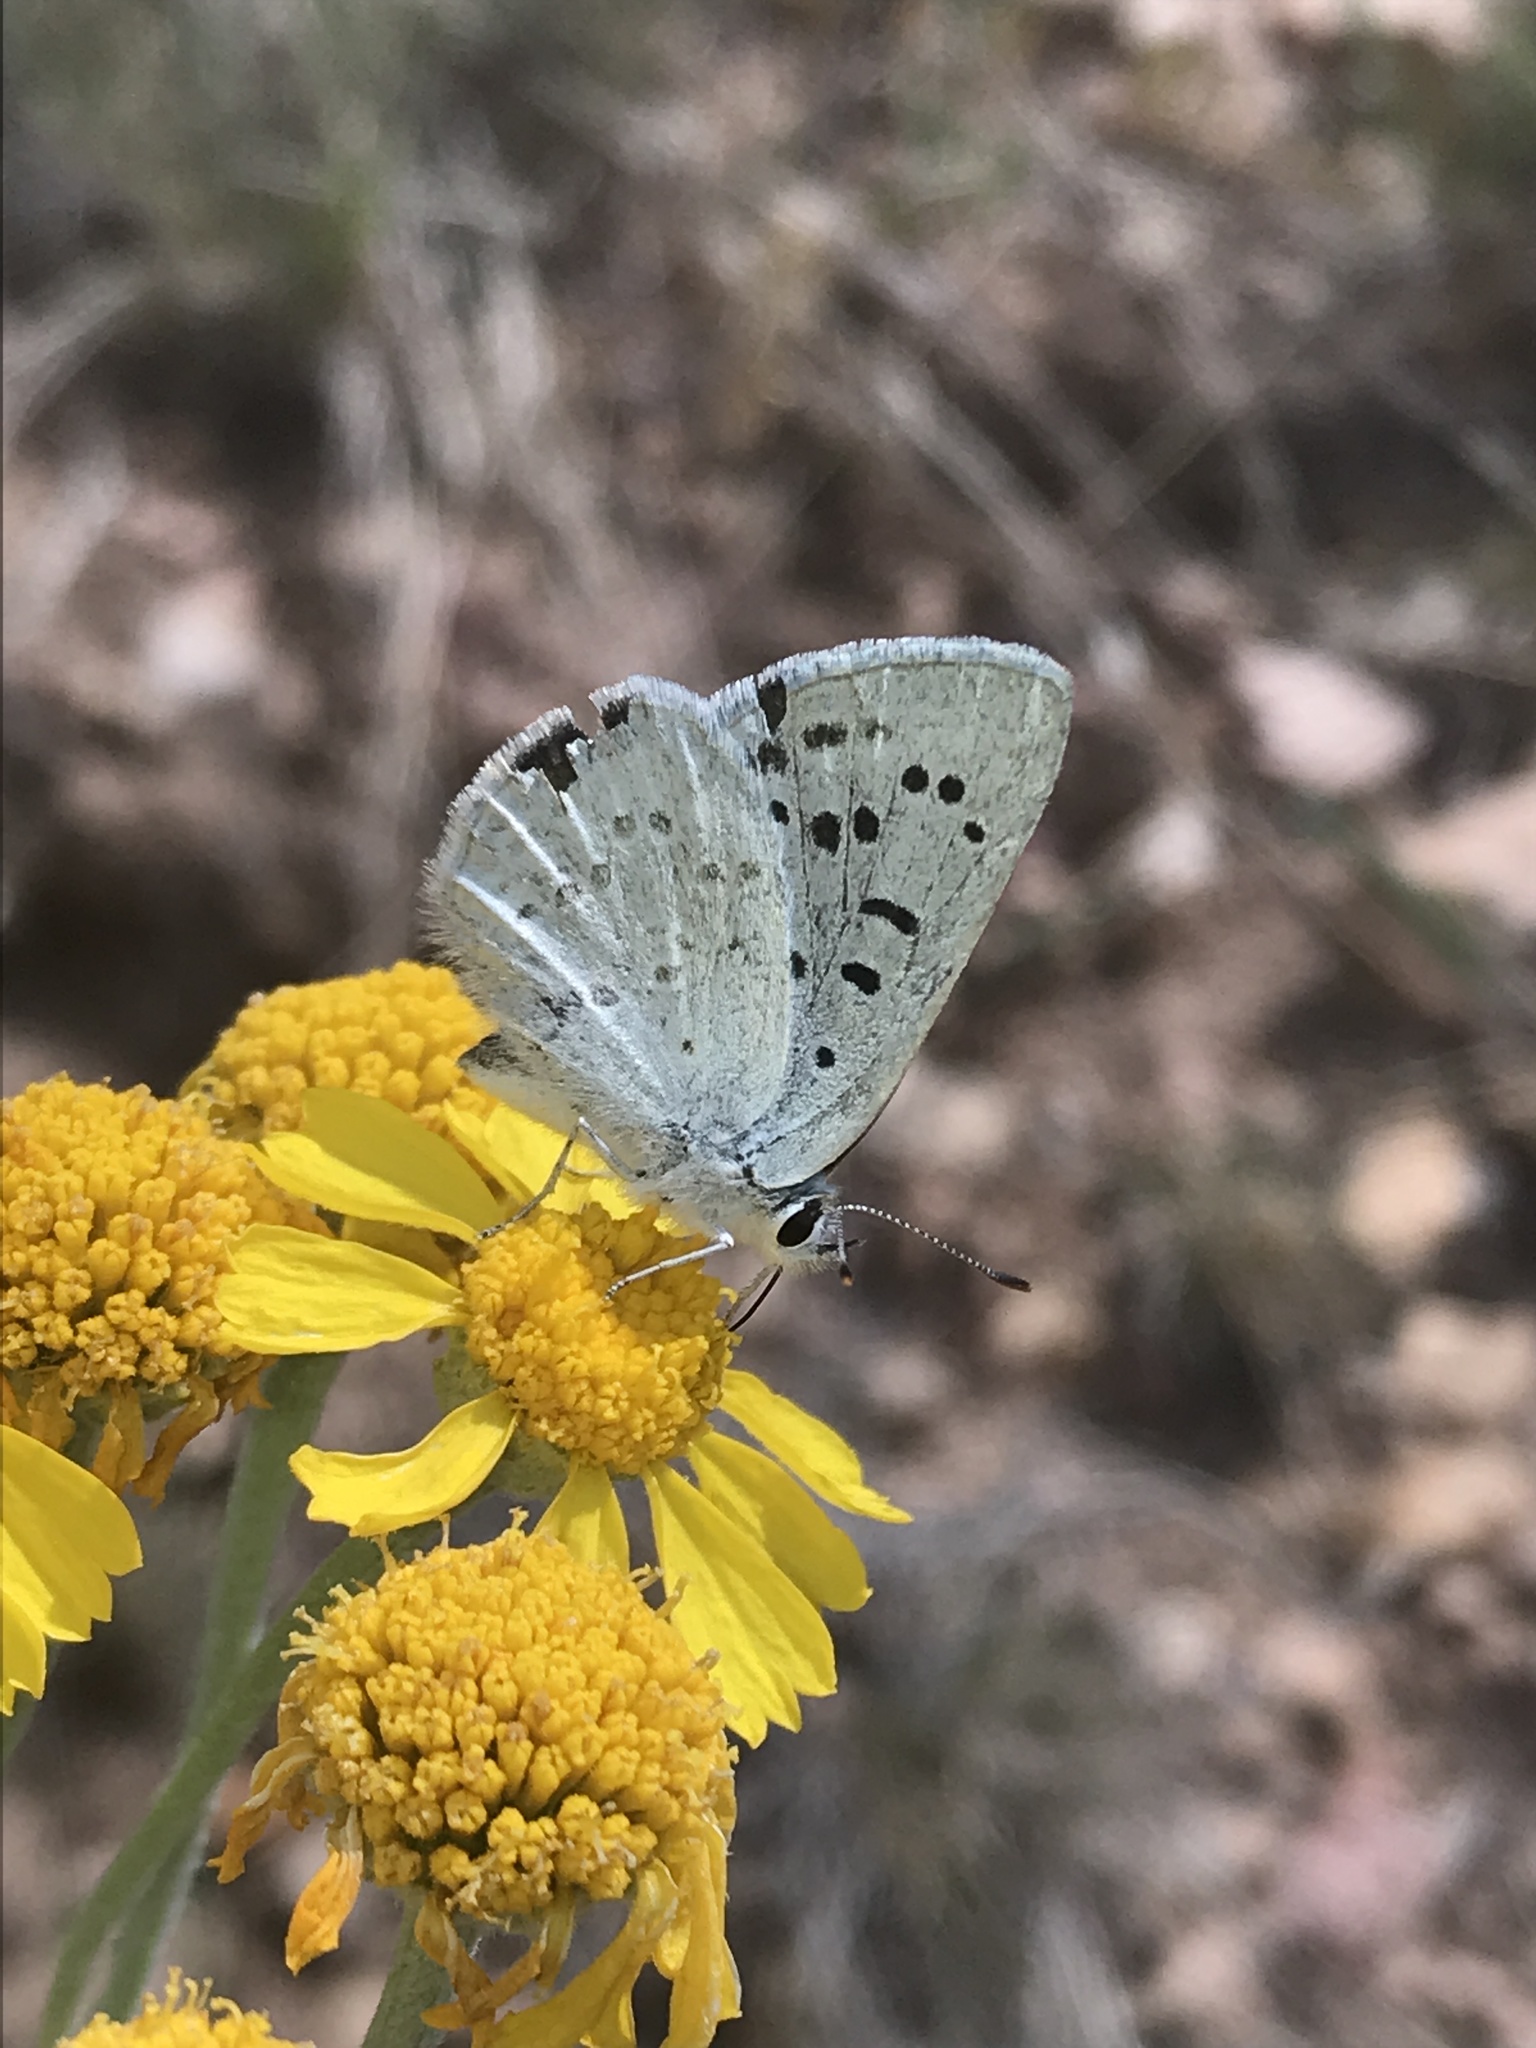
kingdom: Animalia
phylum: Arthropoda
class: Insecta
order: Lepidoptera
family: Lycaenidae
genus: Tharsalea
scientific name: Tharsalea heteronea
